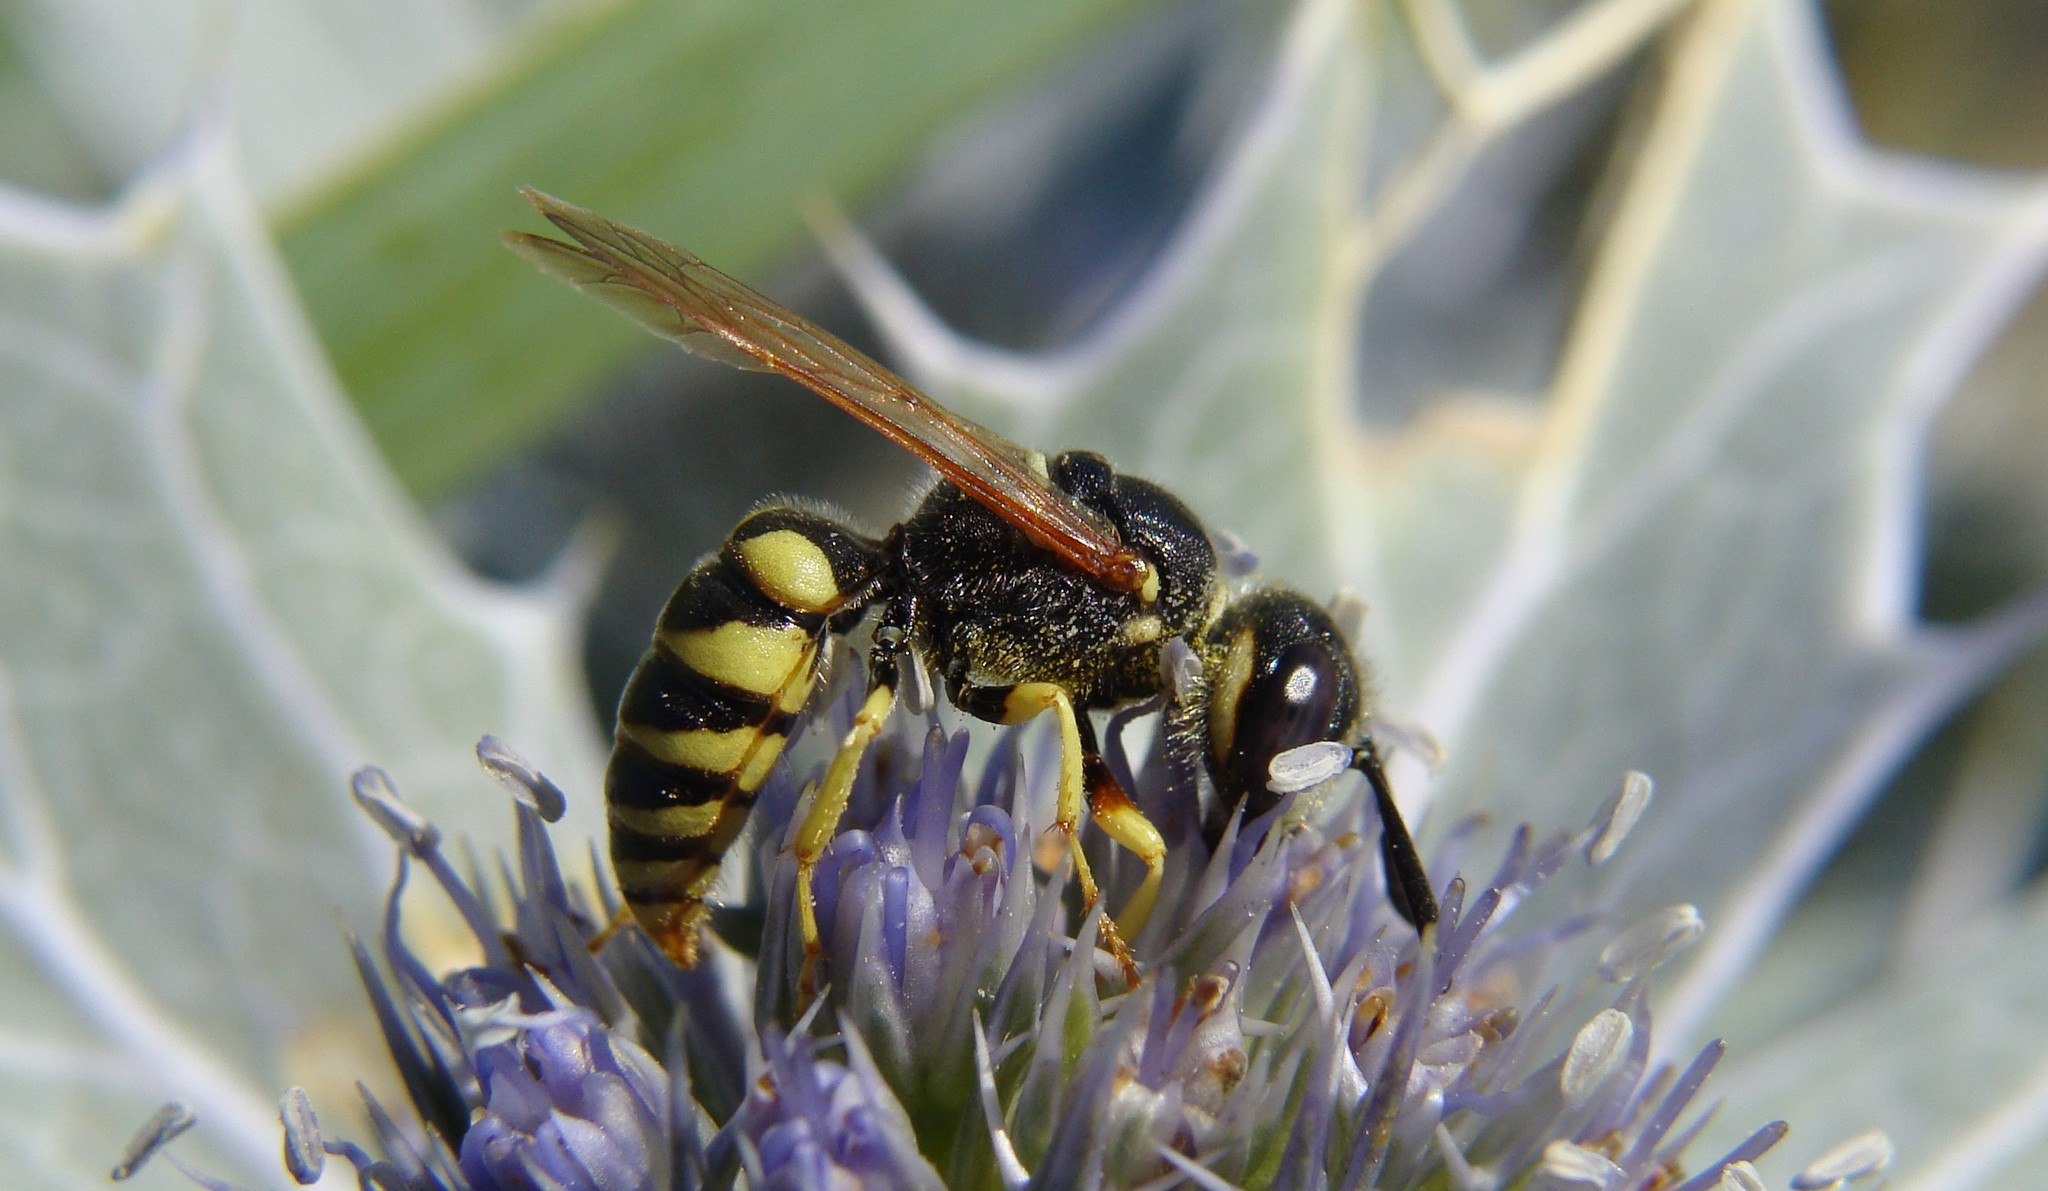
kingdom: Animalia
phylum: Arthropoda
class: Insecta
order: Hymenoptera
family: Crabronidae
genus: Philanthus
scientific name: Philanthus triangulum
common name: Bee wolf
